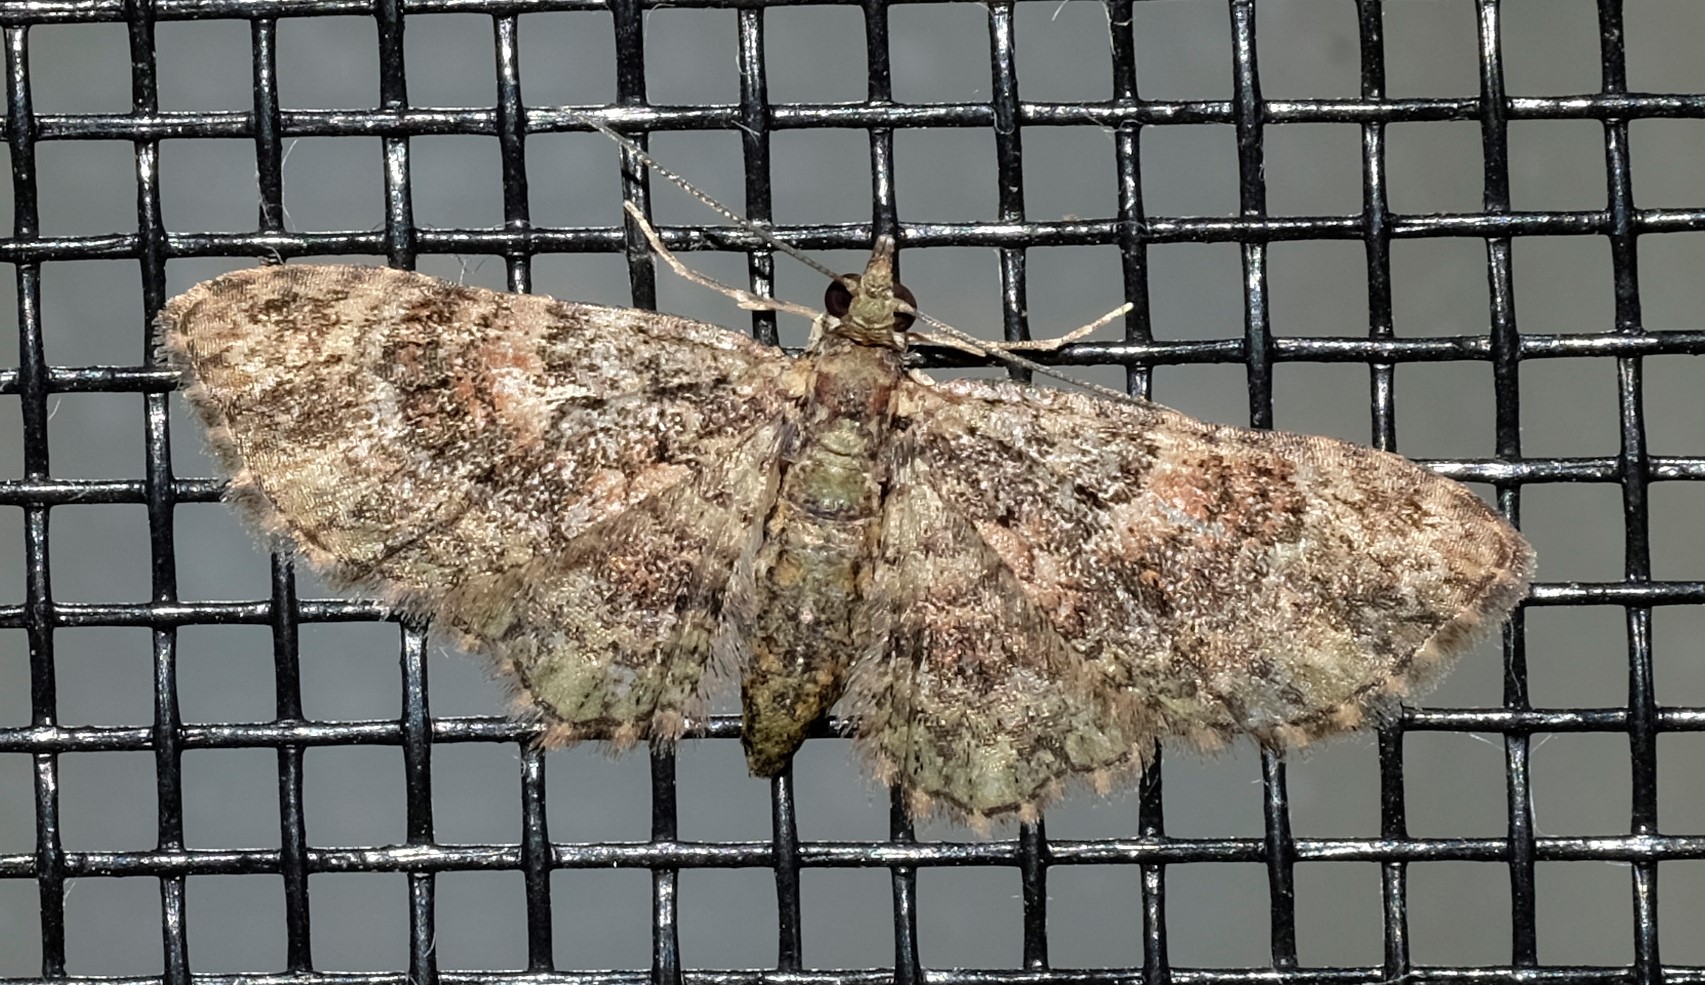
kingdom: Animalia
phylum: Arthropoda
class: Insecta
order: Lepidoptera
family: Geometridae
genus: Chloroclystis
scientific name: Chloroclystis catastreptes
